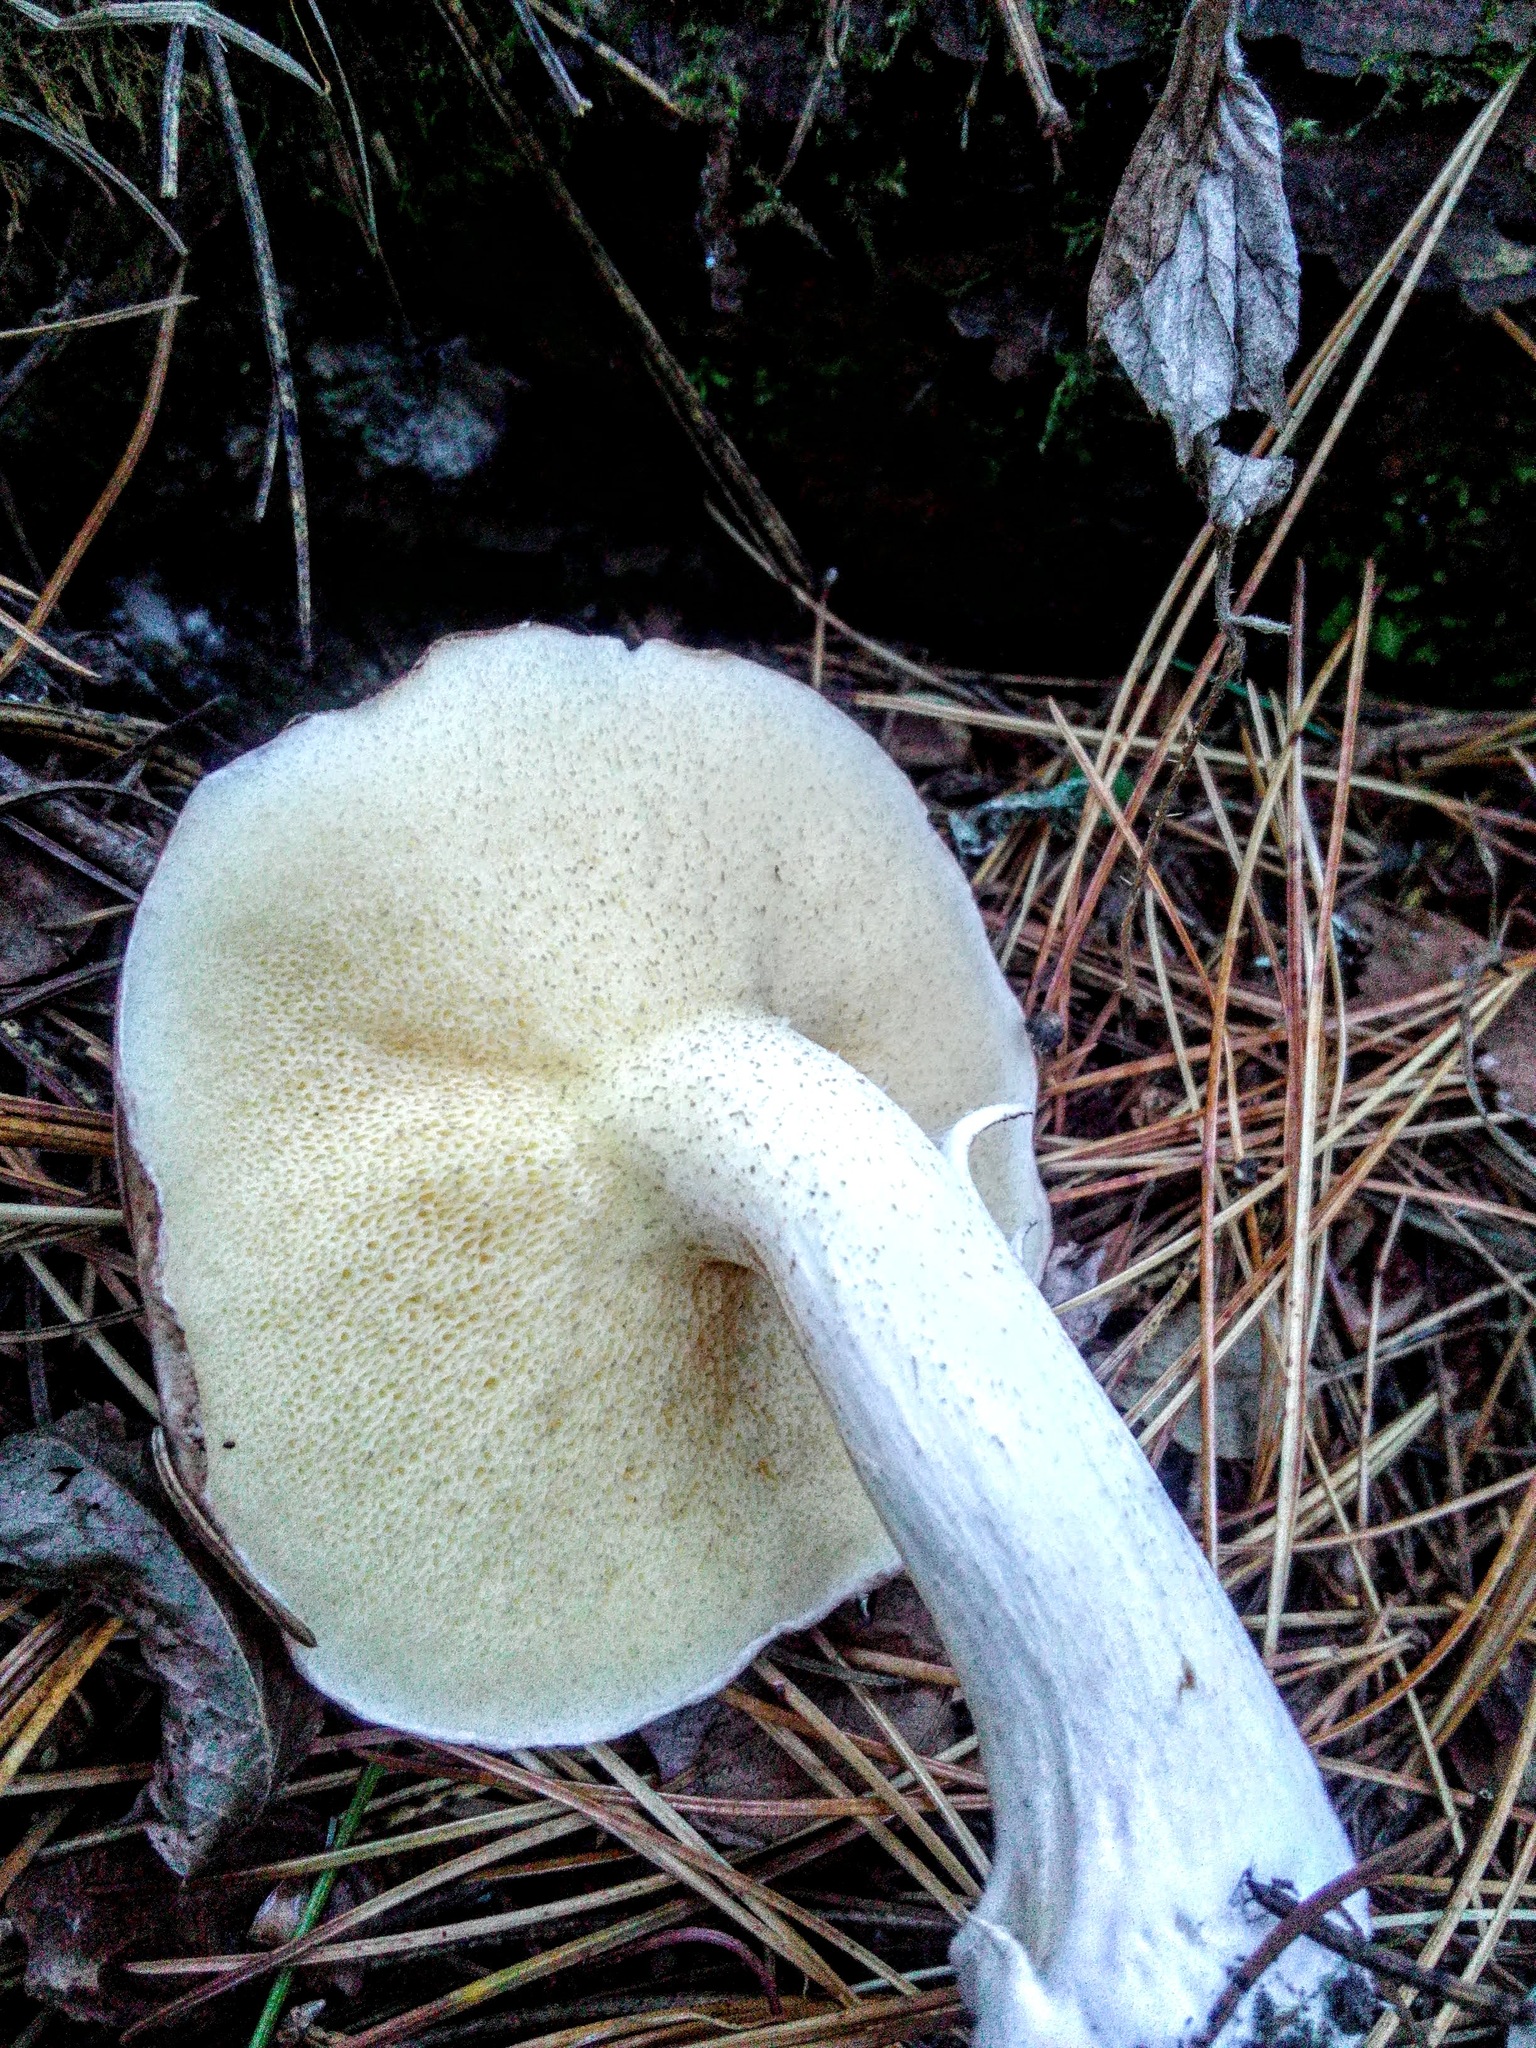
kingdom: Fungi
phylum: Basidiomycota
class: Agaricomycetes
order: Boletales
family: Suillaceae
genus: Suillus
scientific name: Suillus placidus
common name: Slippery white bolete
